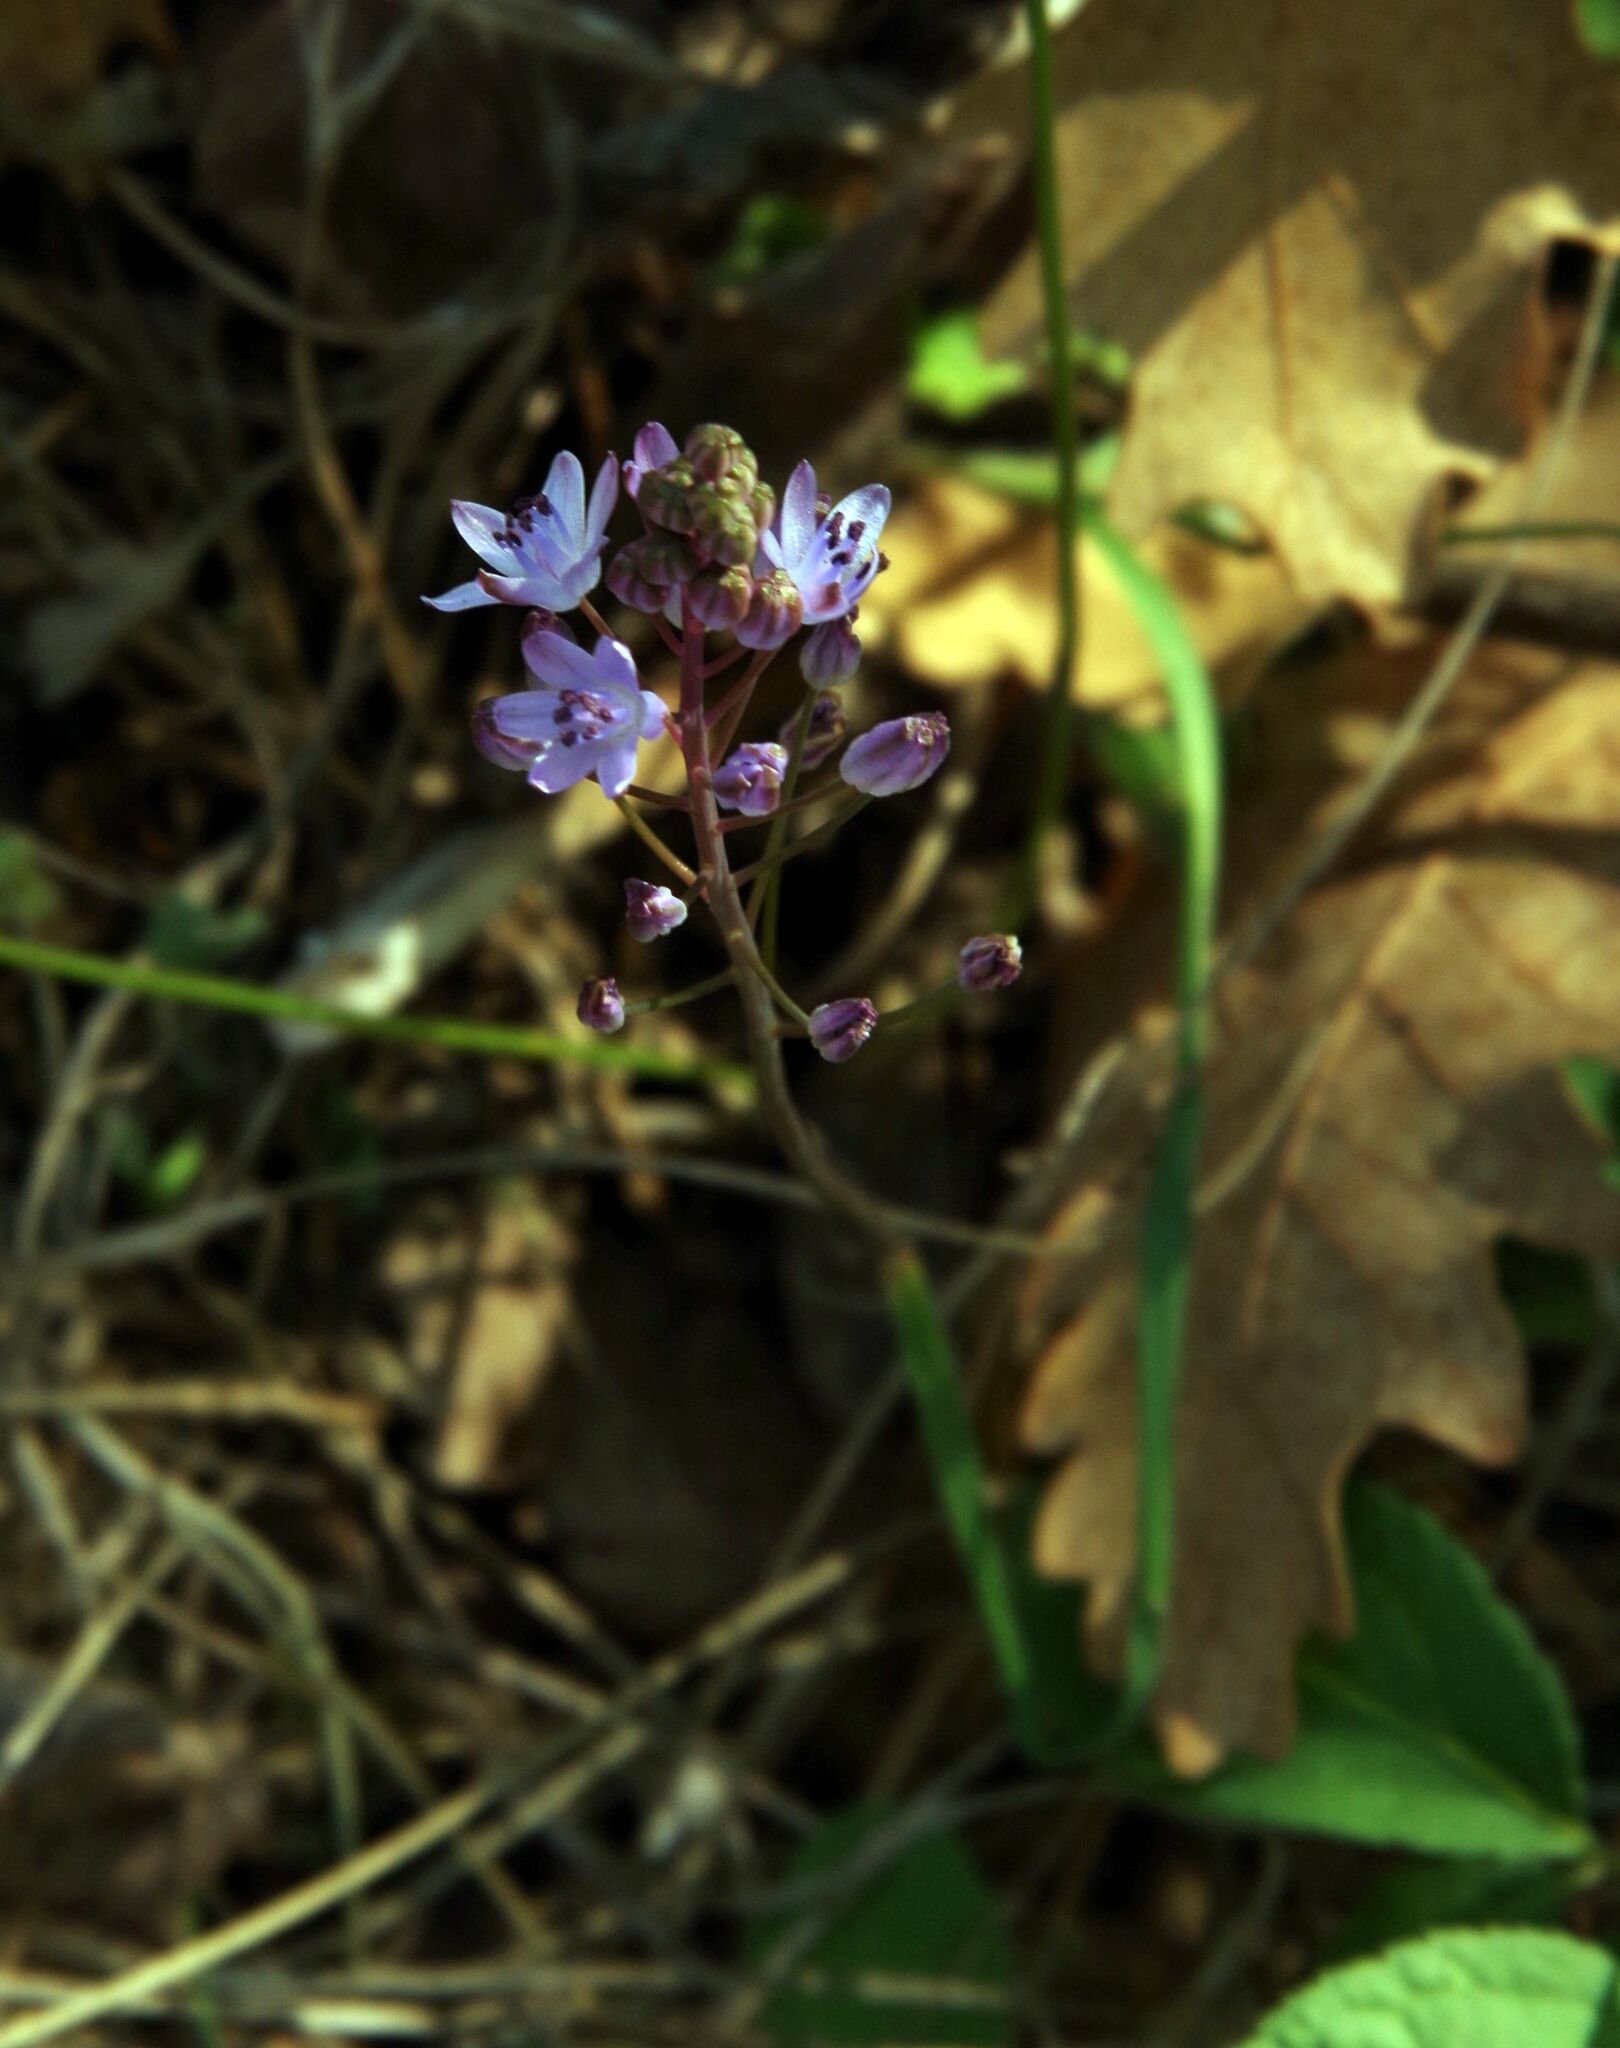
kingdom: Plantae
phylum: Tracheophyta
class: Liliopsida
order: Asparagales
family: Asparagaceae
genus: Prospero
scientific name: Prospero autumnale
